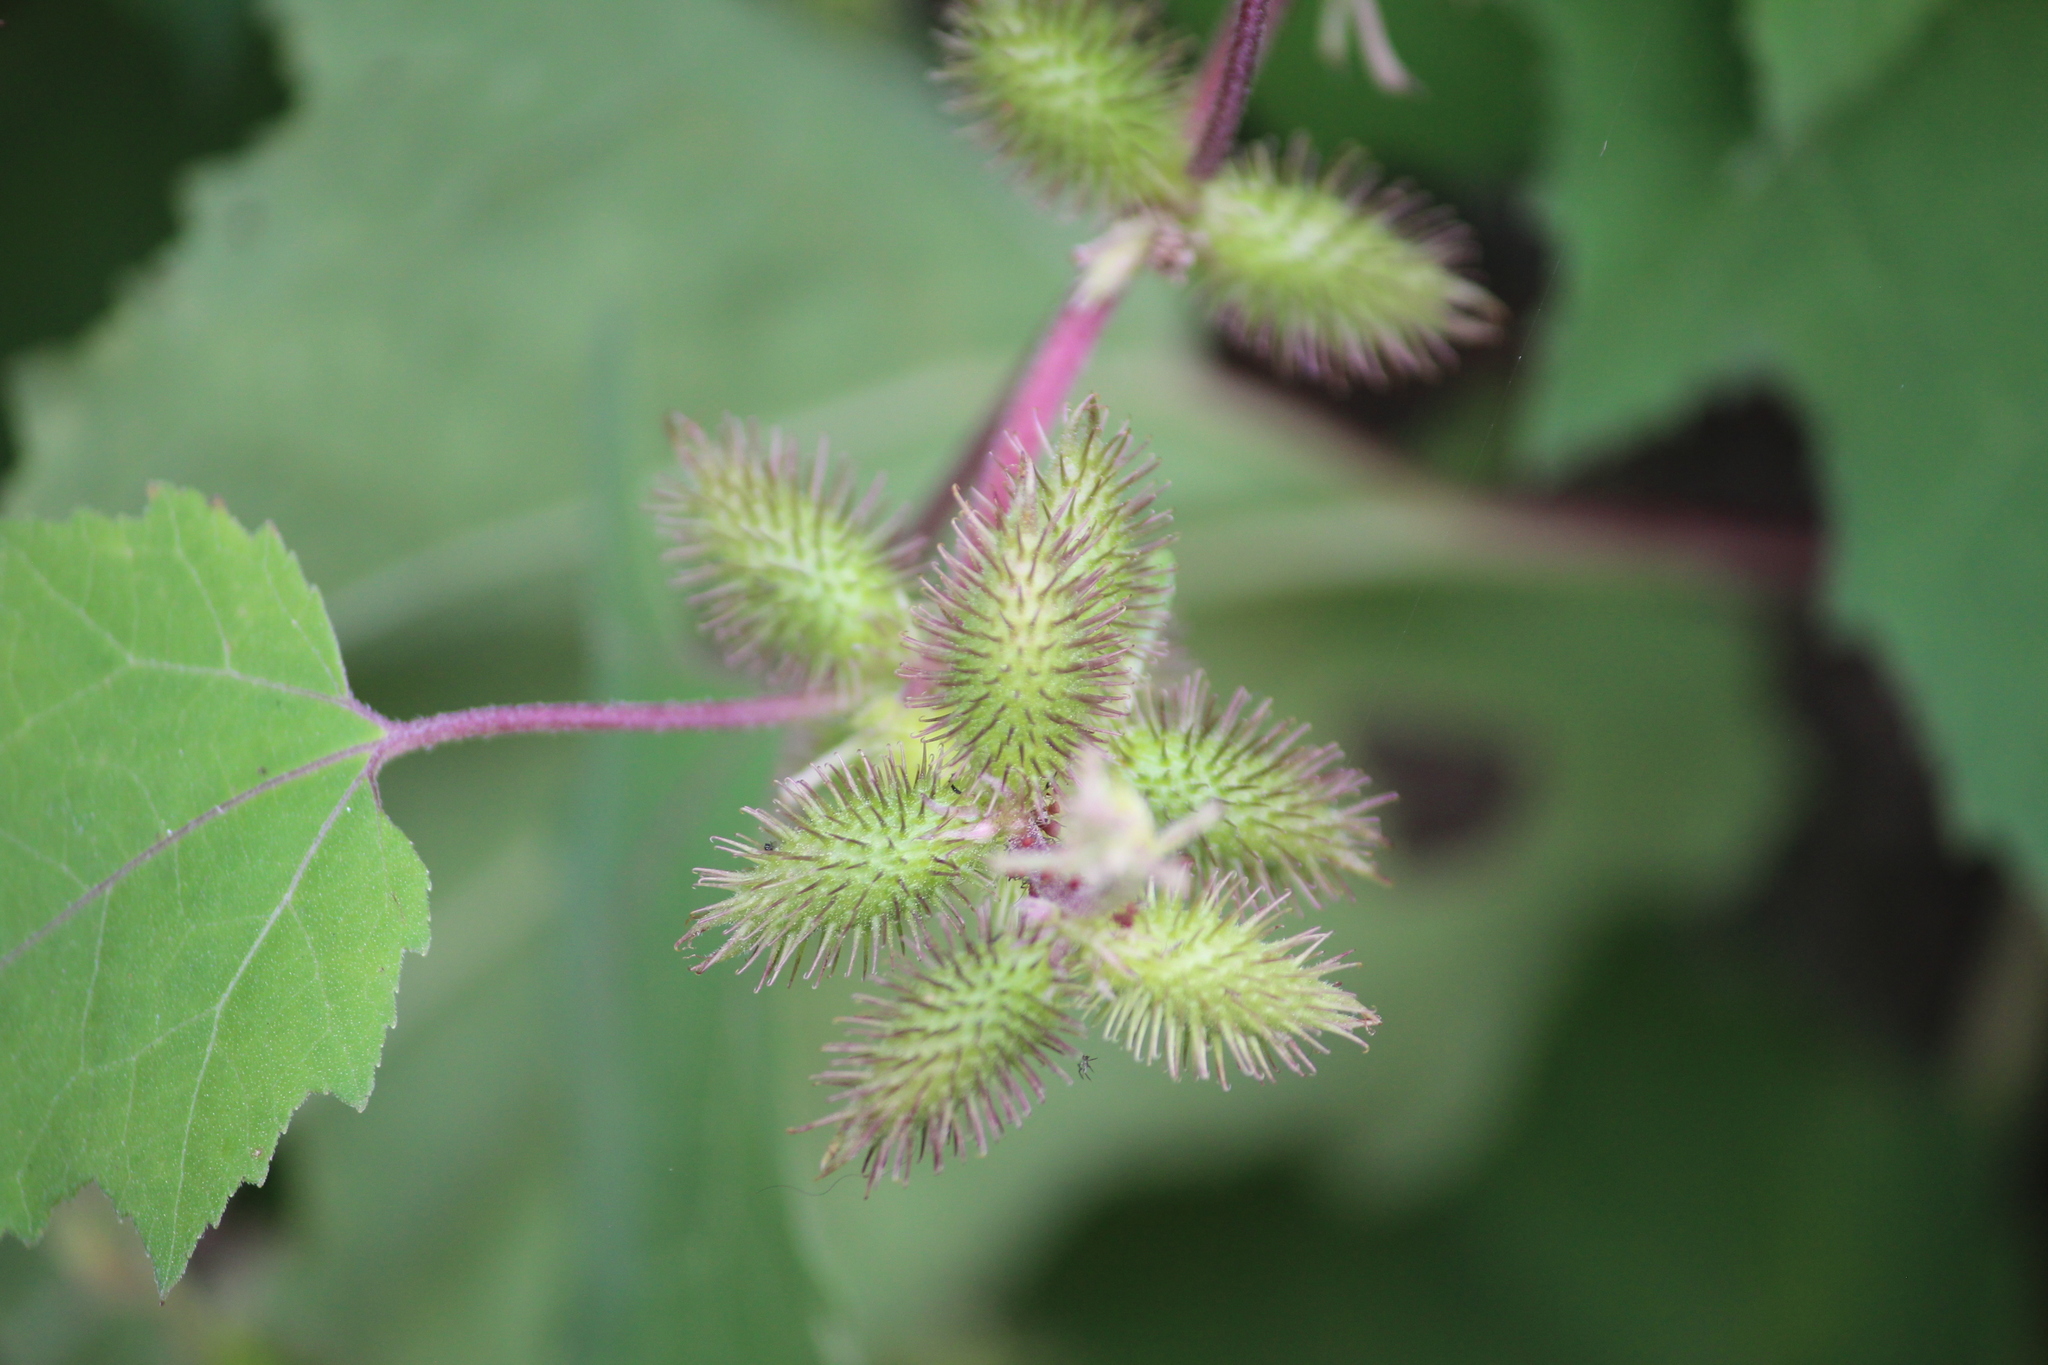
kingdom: Plantae
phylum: Tracheophyta
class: Magnoliopsida
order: Asterales
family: Asteraceae
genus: Xanthium
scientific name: Xanthium strumarium
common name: Rough cocklebur
